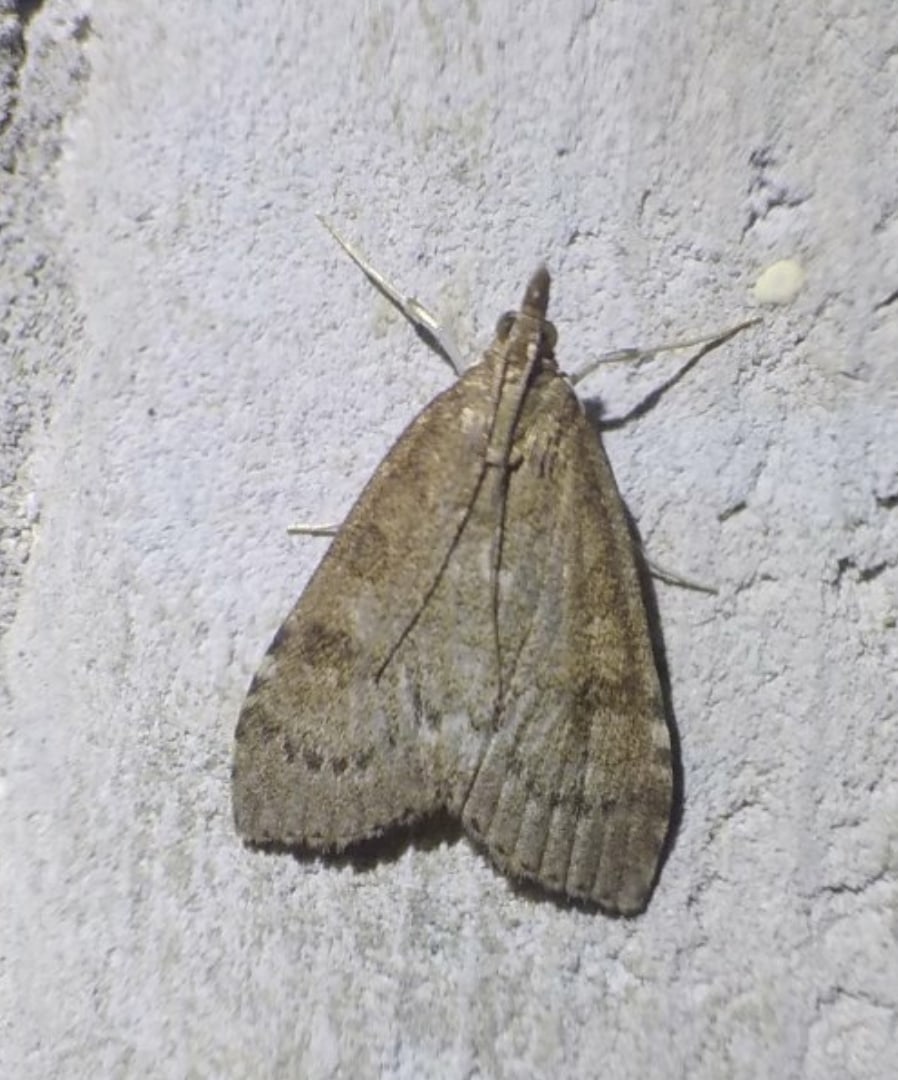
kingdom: Animalia
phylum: Arthropoda
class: Insecta
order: Lepidoptera
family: Crambidae
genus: Udea
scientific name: Udea prunalis
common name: Dusky pearl
